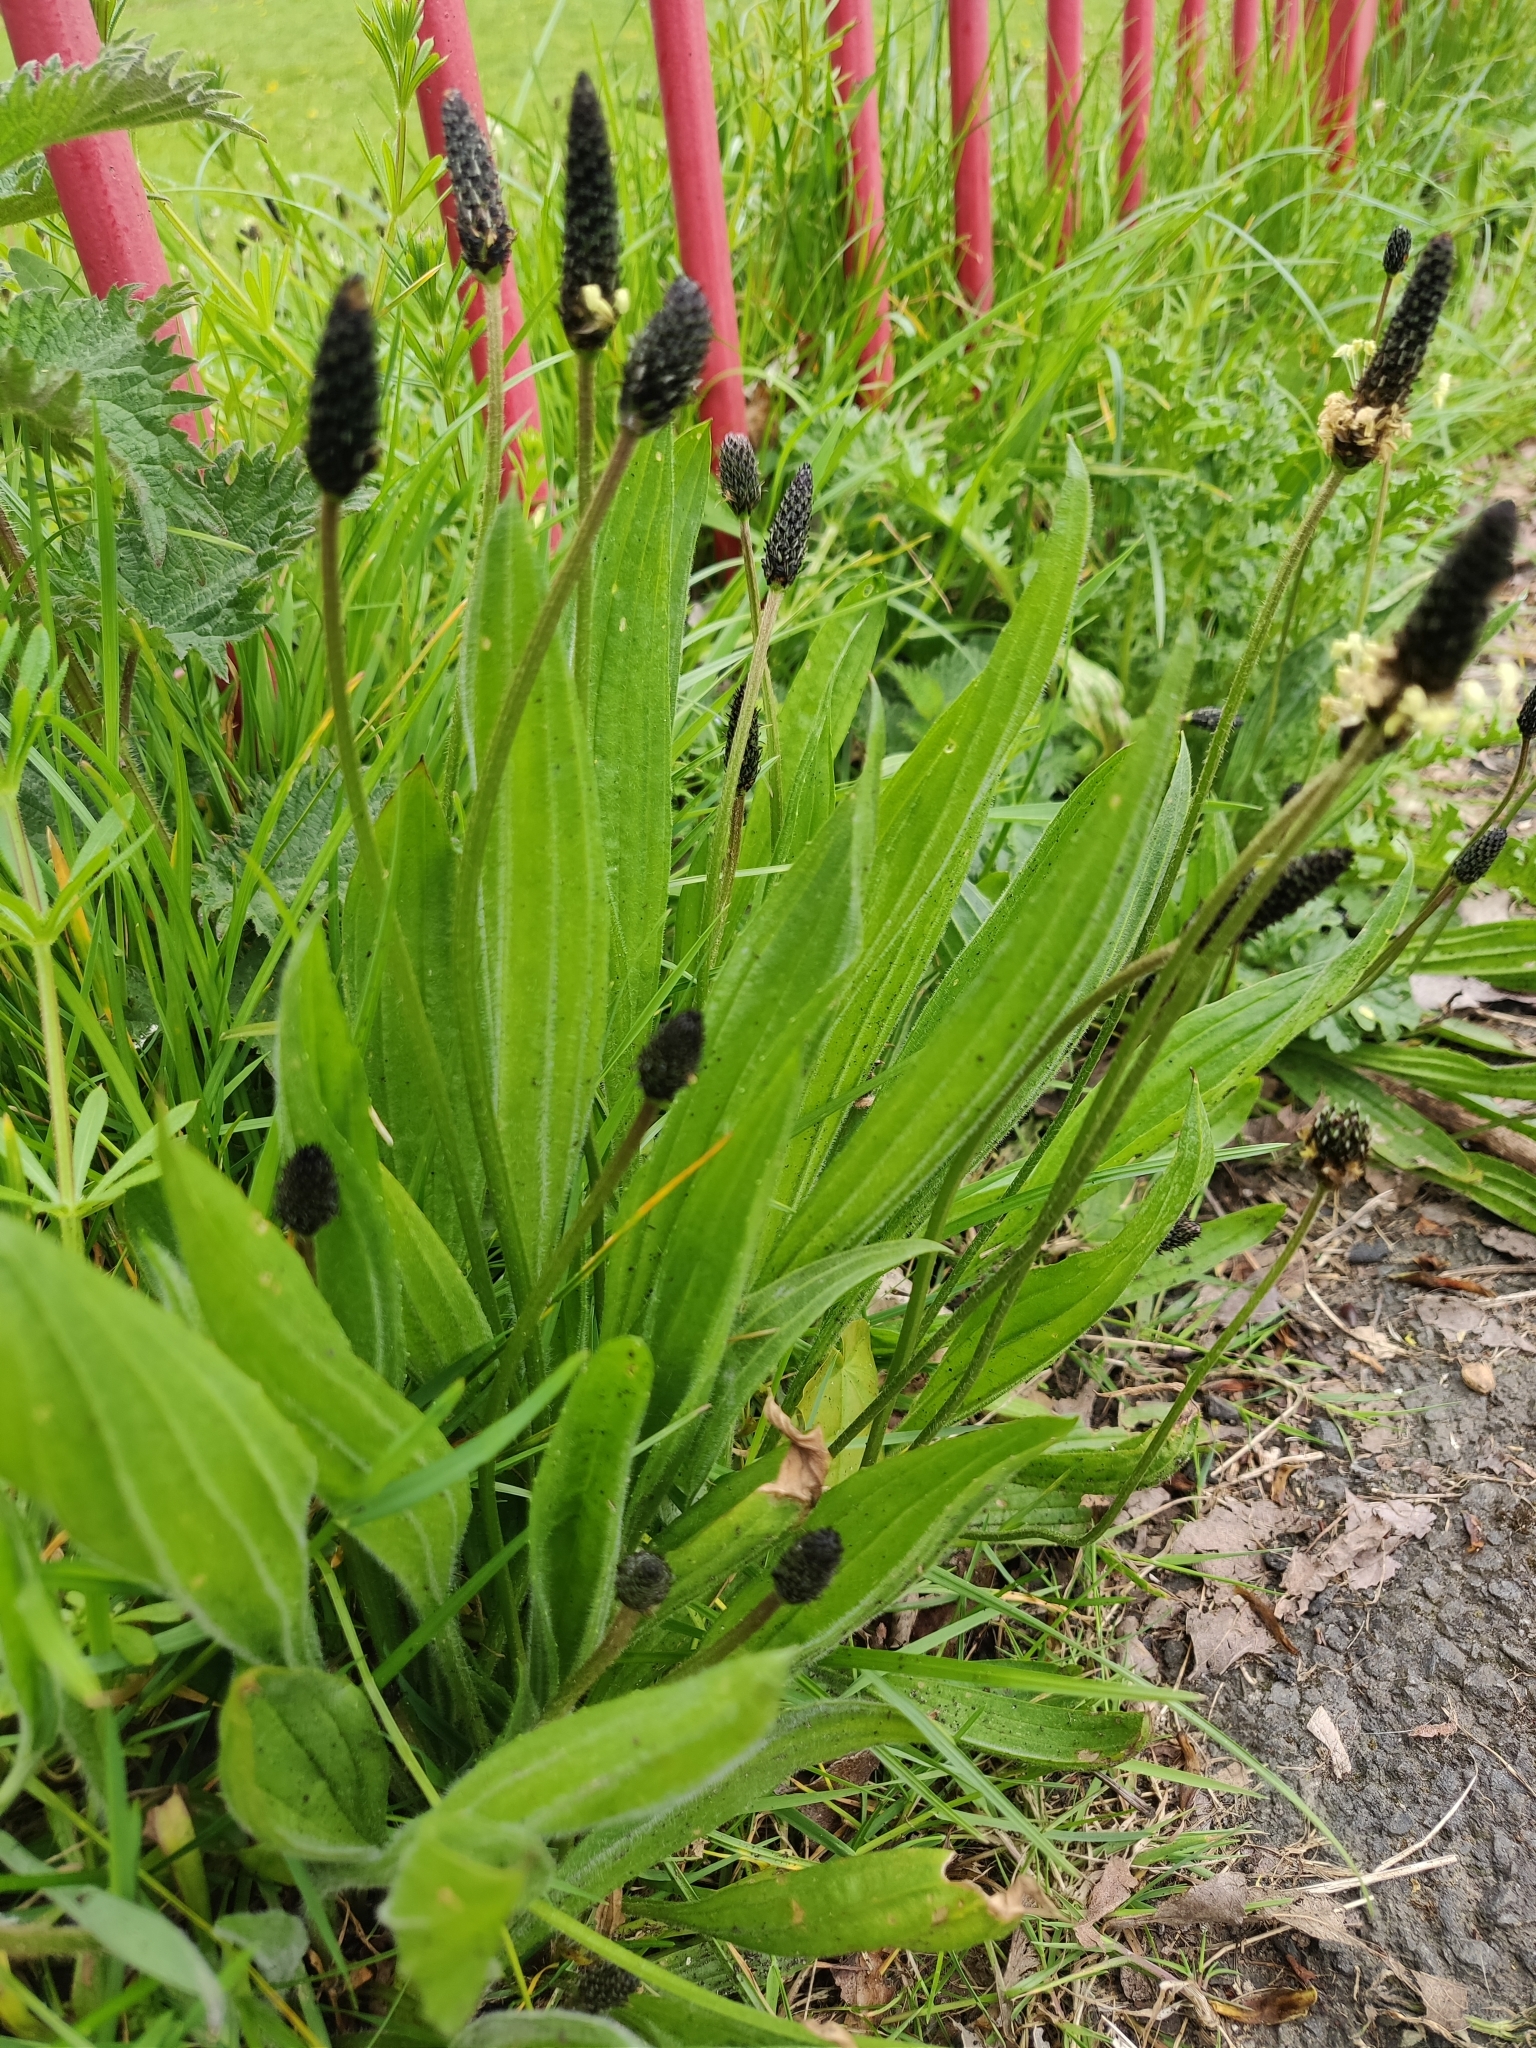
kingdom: Plantae
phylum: Tracheophyta
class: Magnoliopsida
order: Lamiales
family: Plantaginaceae
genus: Plantago
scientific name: Plantago lanceolata
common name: Ribwort plantain
